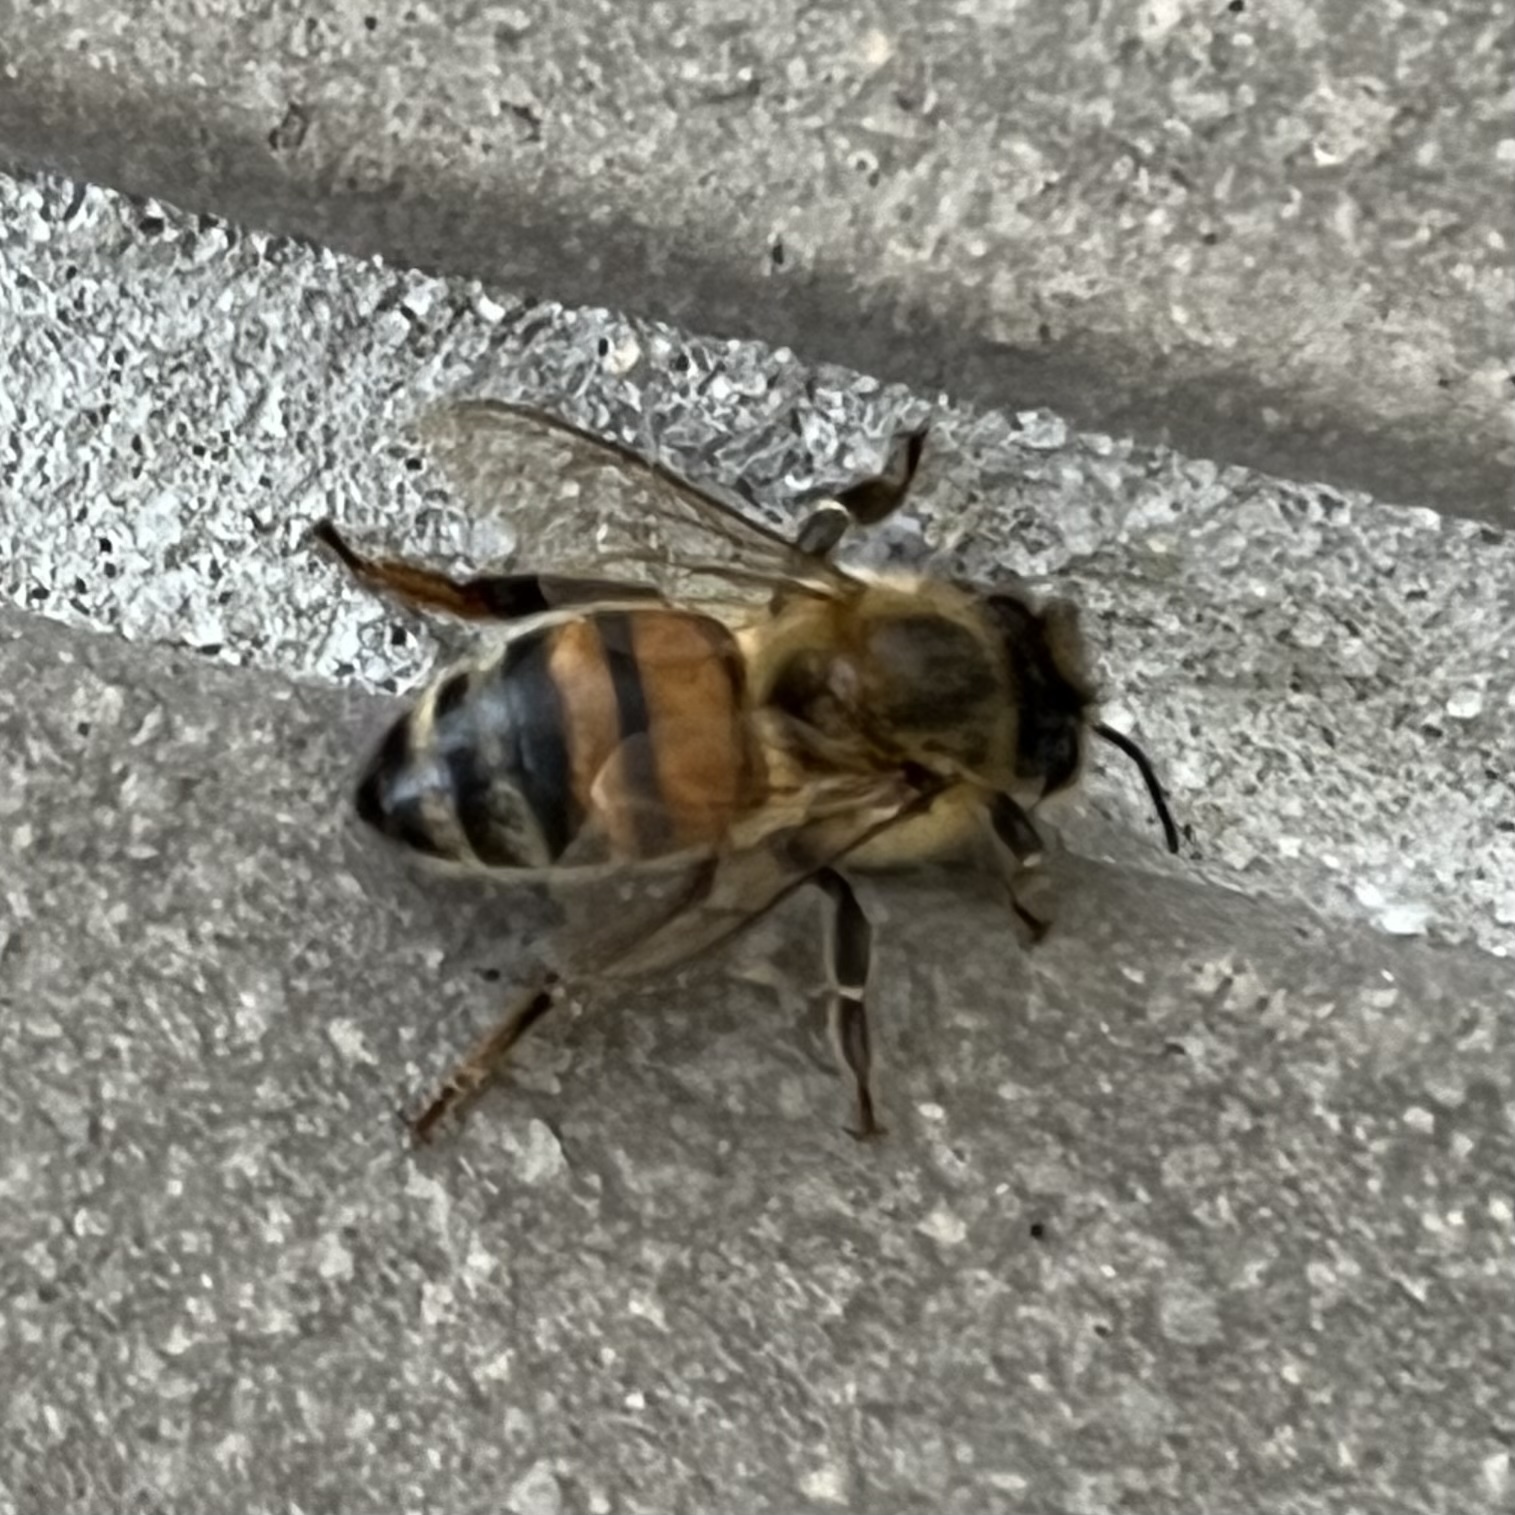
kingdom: Animalia
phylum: Arthropoda
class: Insecta
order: Hymenoptera
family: Apidae
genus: Apis
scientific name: Apis mellifera
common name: Honey bee
